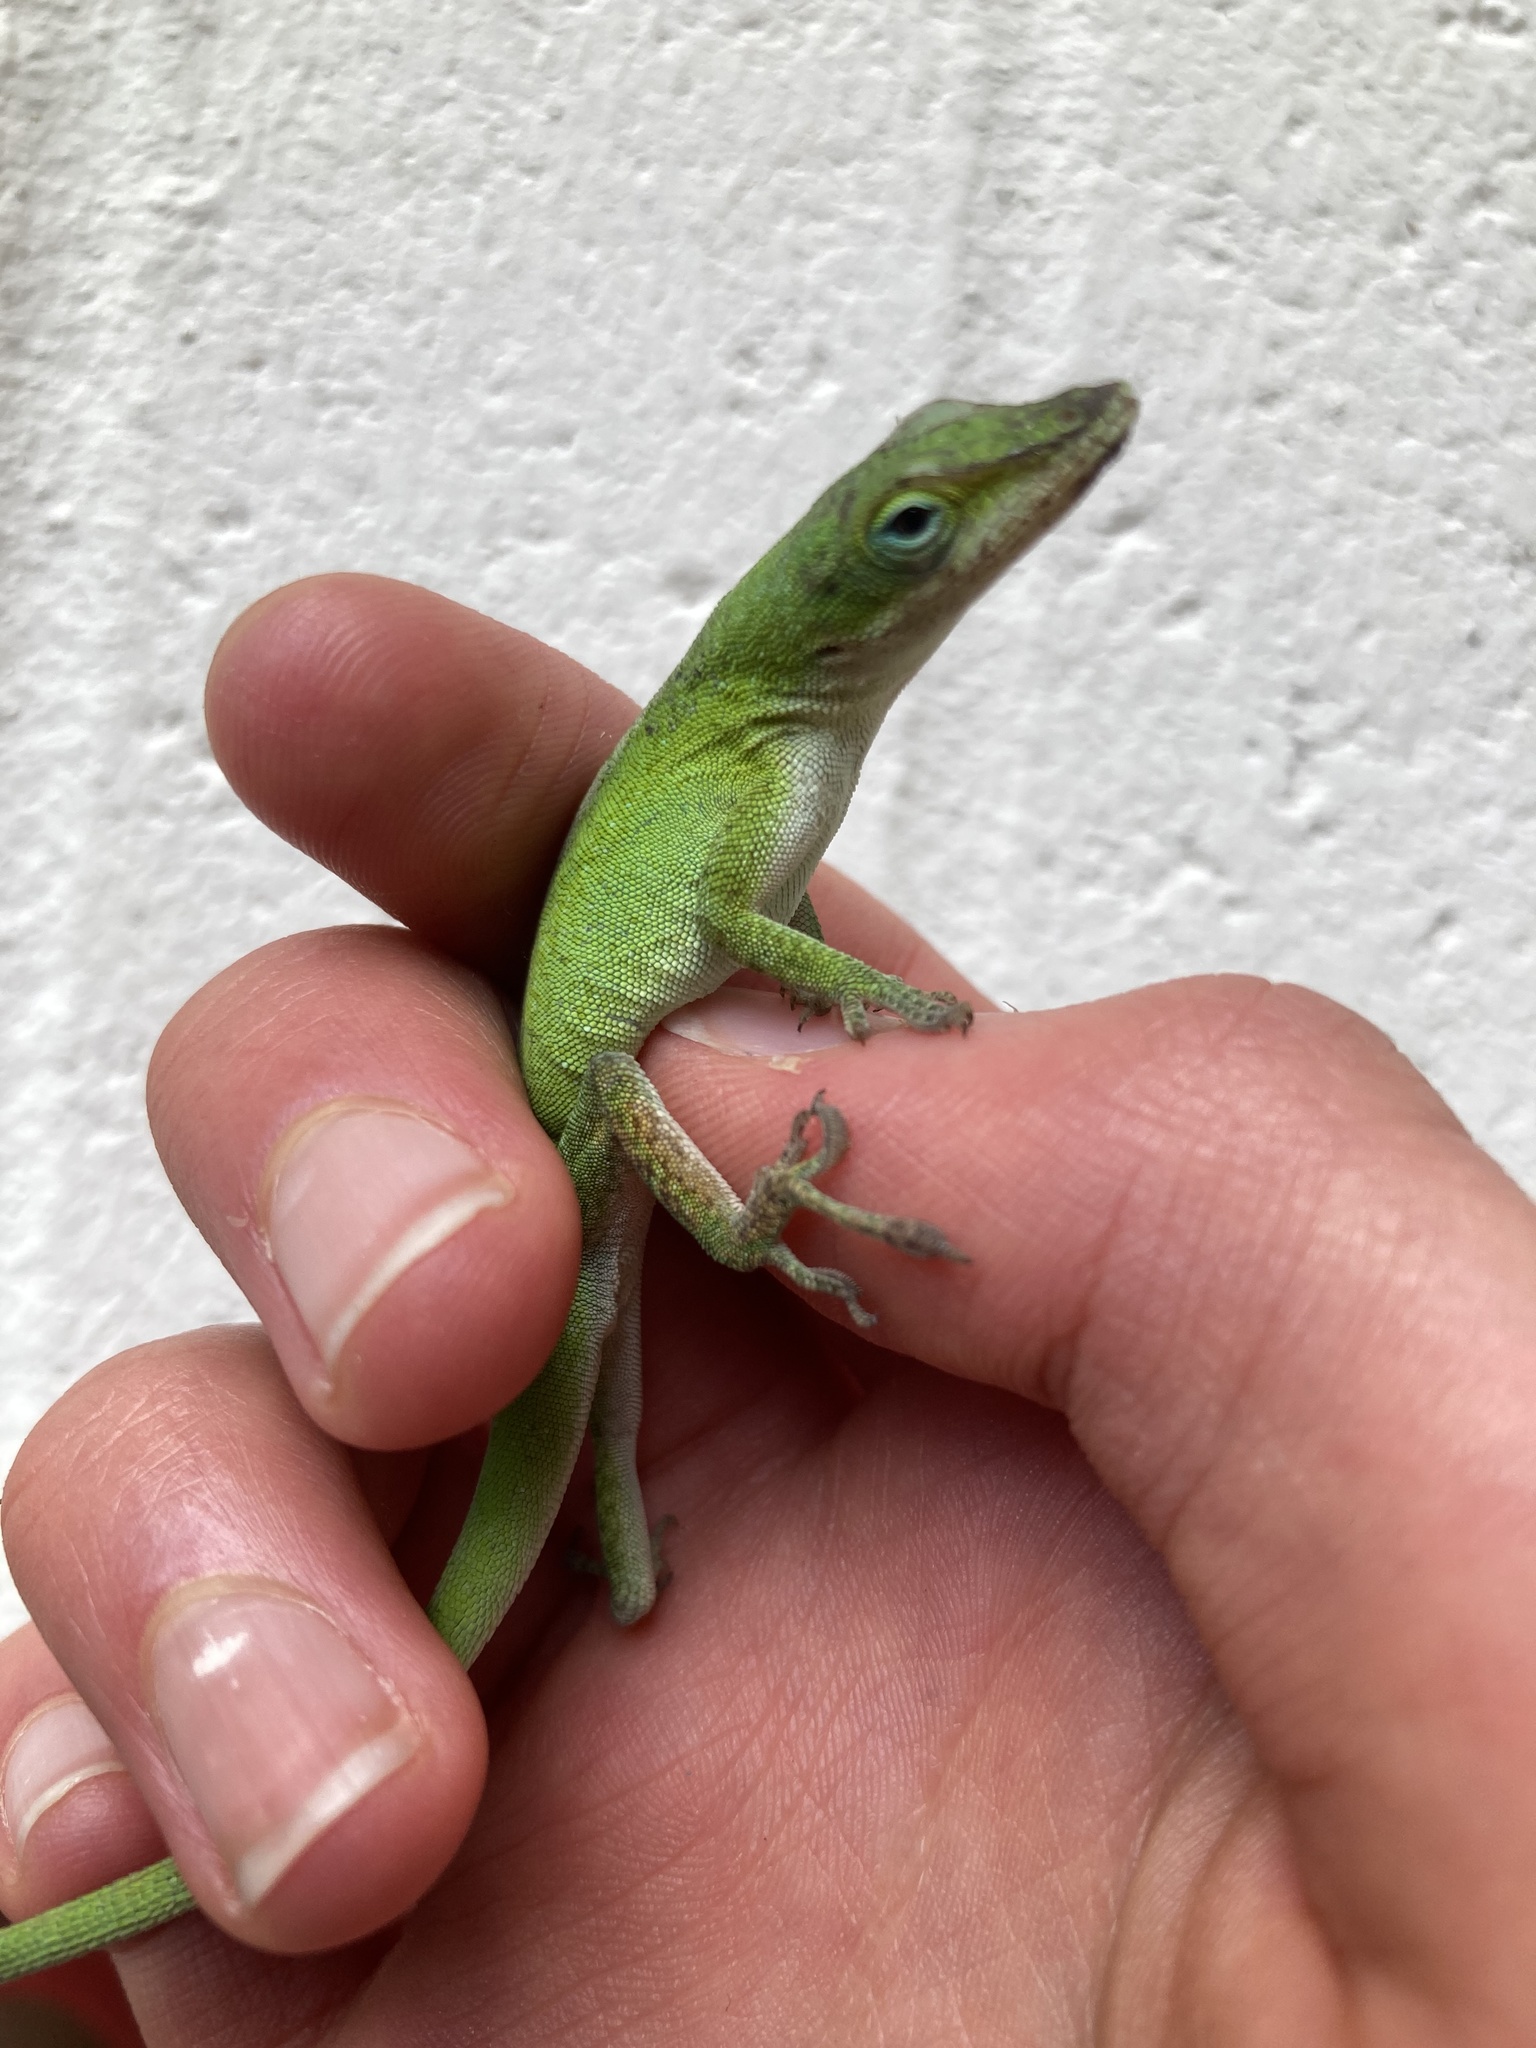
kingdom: Animalia
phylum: Chordata
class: Squamata
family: Dactyloidae
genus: Anolis
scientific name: Anolis carolinensis
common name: Green anole
